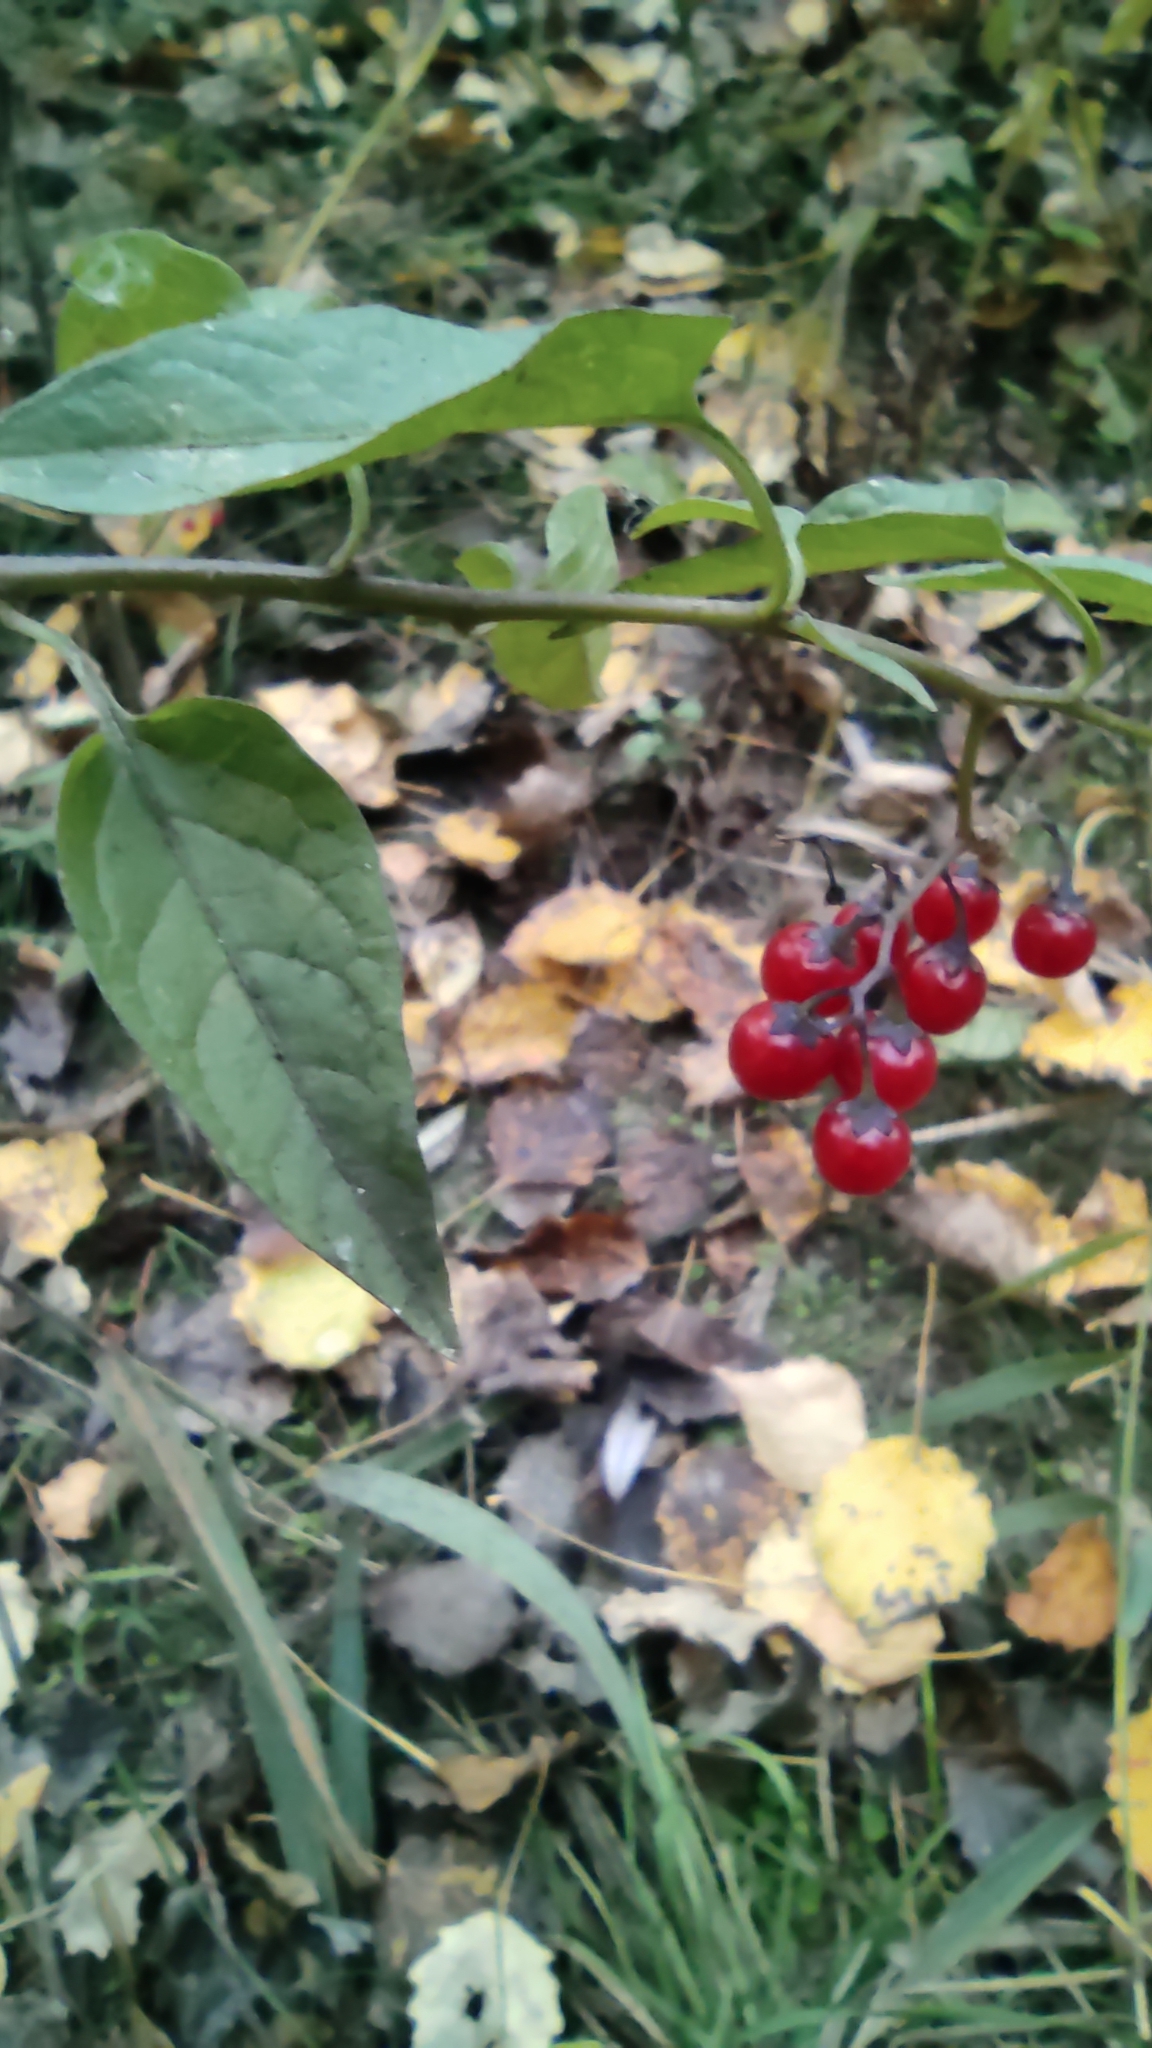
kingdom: Plantae
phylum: Tracheophyta
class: Magnoliopsida
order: Solanales
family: Solanaceae
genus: Solanum
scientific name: Solanum dulcamara
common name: Climbing nightshade
